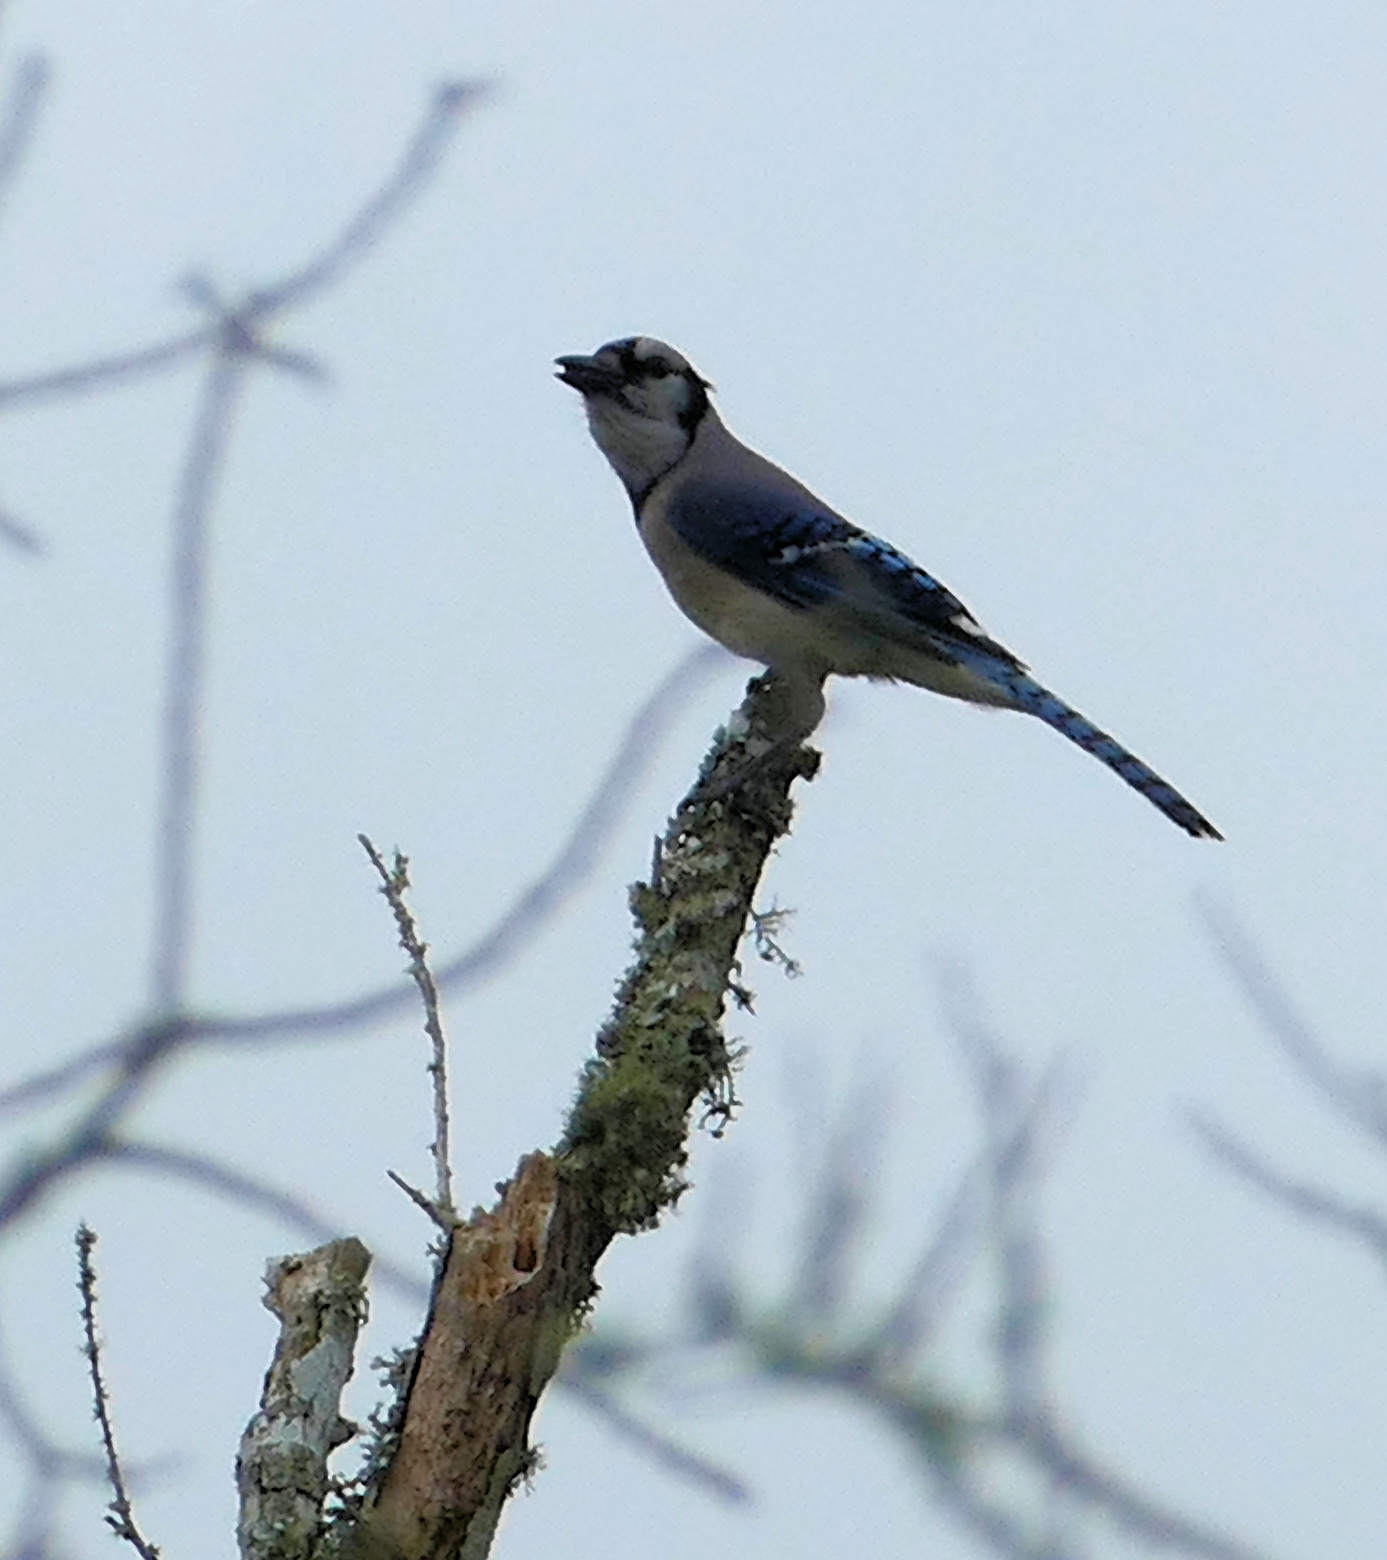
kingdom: Animalia
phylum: Chordata
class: Aves
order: Passeriformes
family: Corvidae
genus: Cyanocitta
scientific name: Cyanocitta cristata
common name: Blue jay
